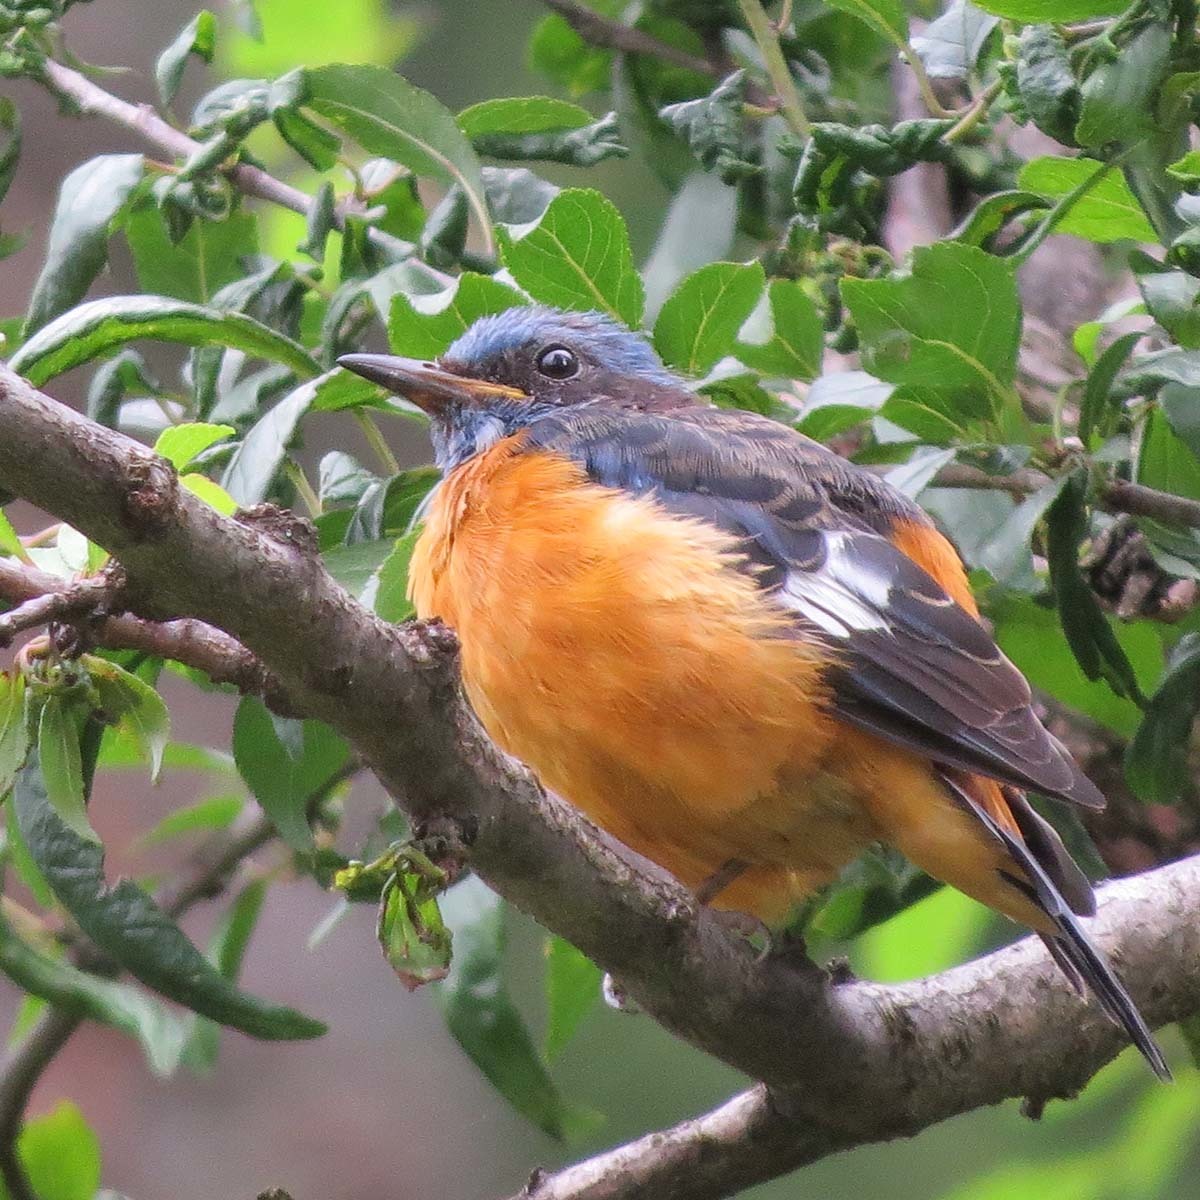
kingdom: Animalia
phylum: Chordata
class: Aves
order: Passeriformes
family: Muscicapidae
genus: Monticola
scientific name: Monticola cinclorhynchus
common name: Blue-capped rock thrush
